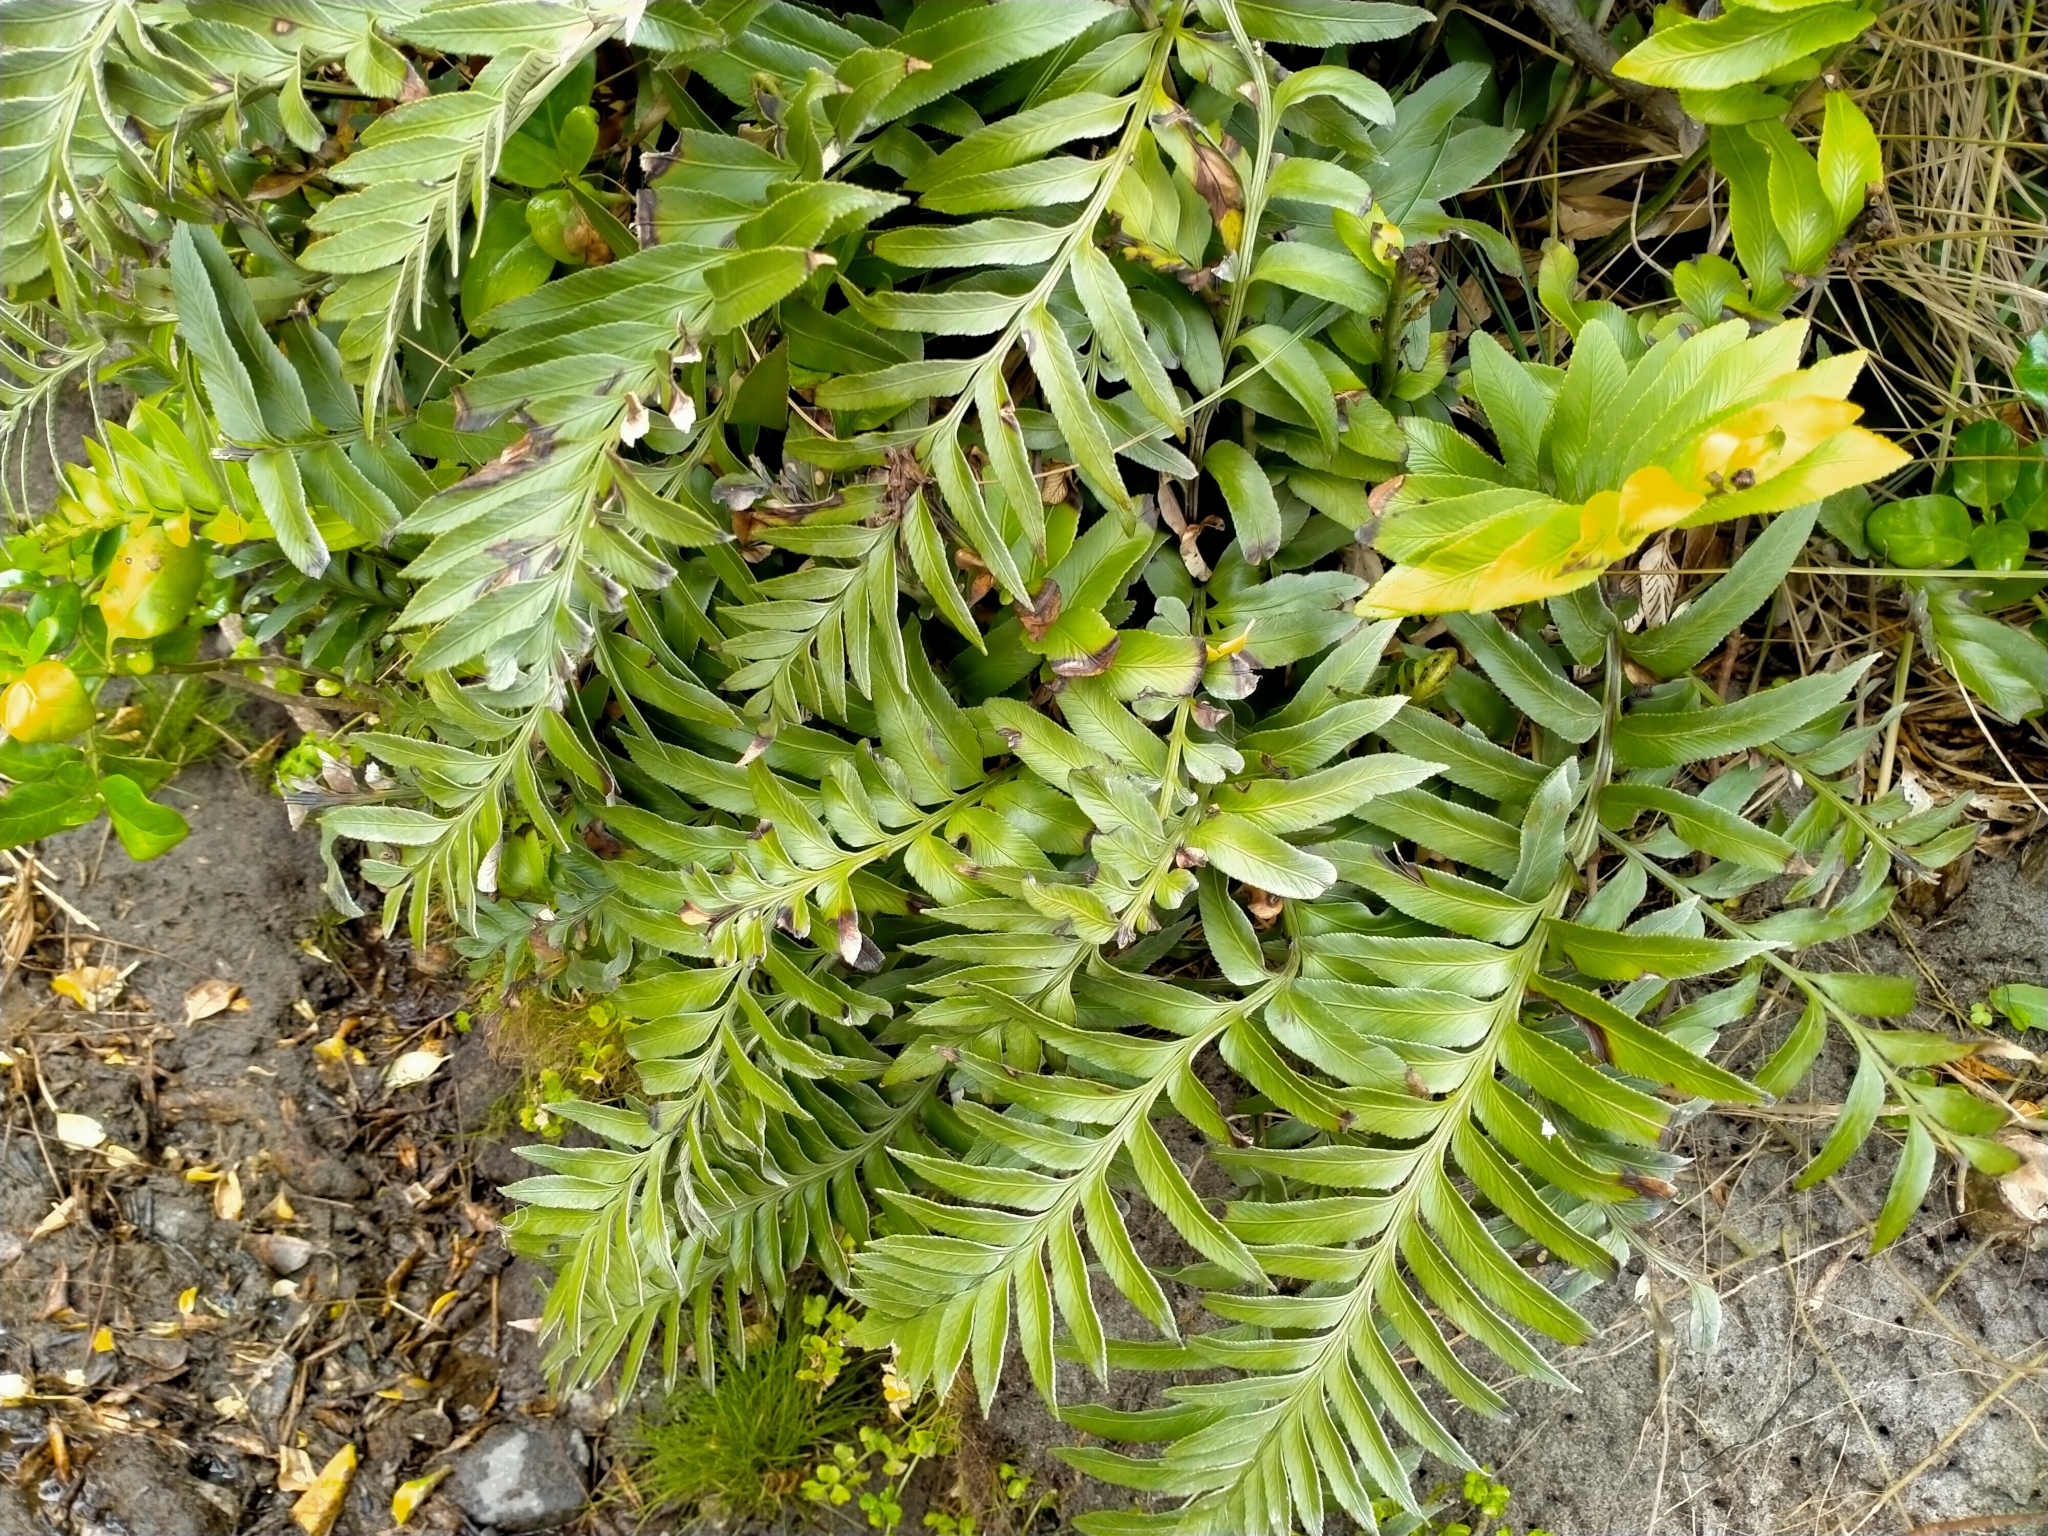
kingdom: Plantae
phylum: Tracheophyta
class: Polypodiopsida
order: Polypodiales
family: Aspleniaceae
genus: Asplenium
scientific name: Asplenium obtusatum
